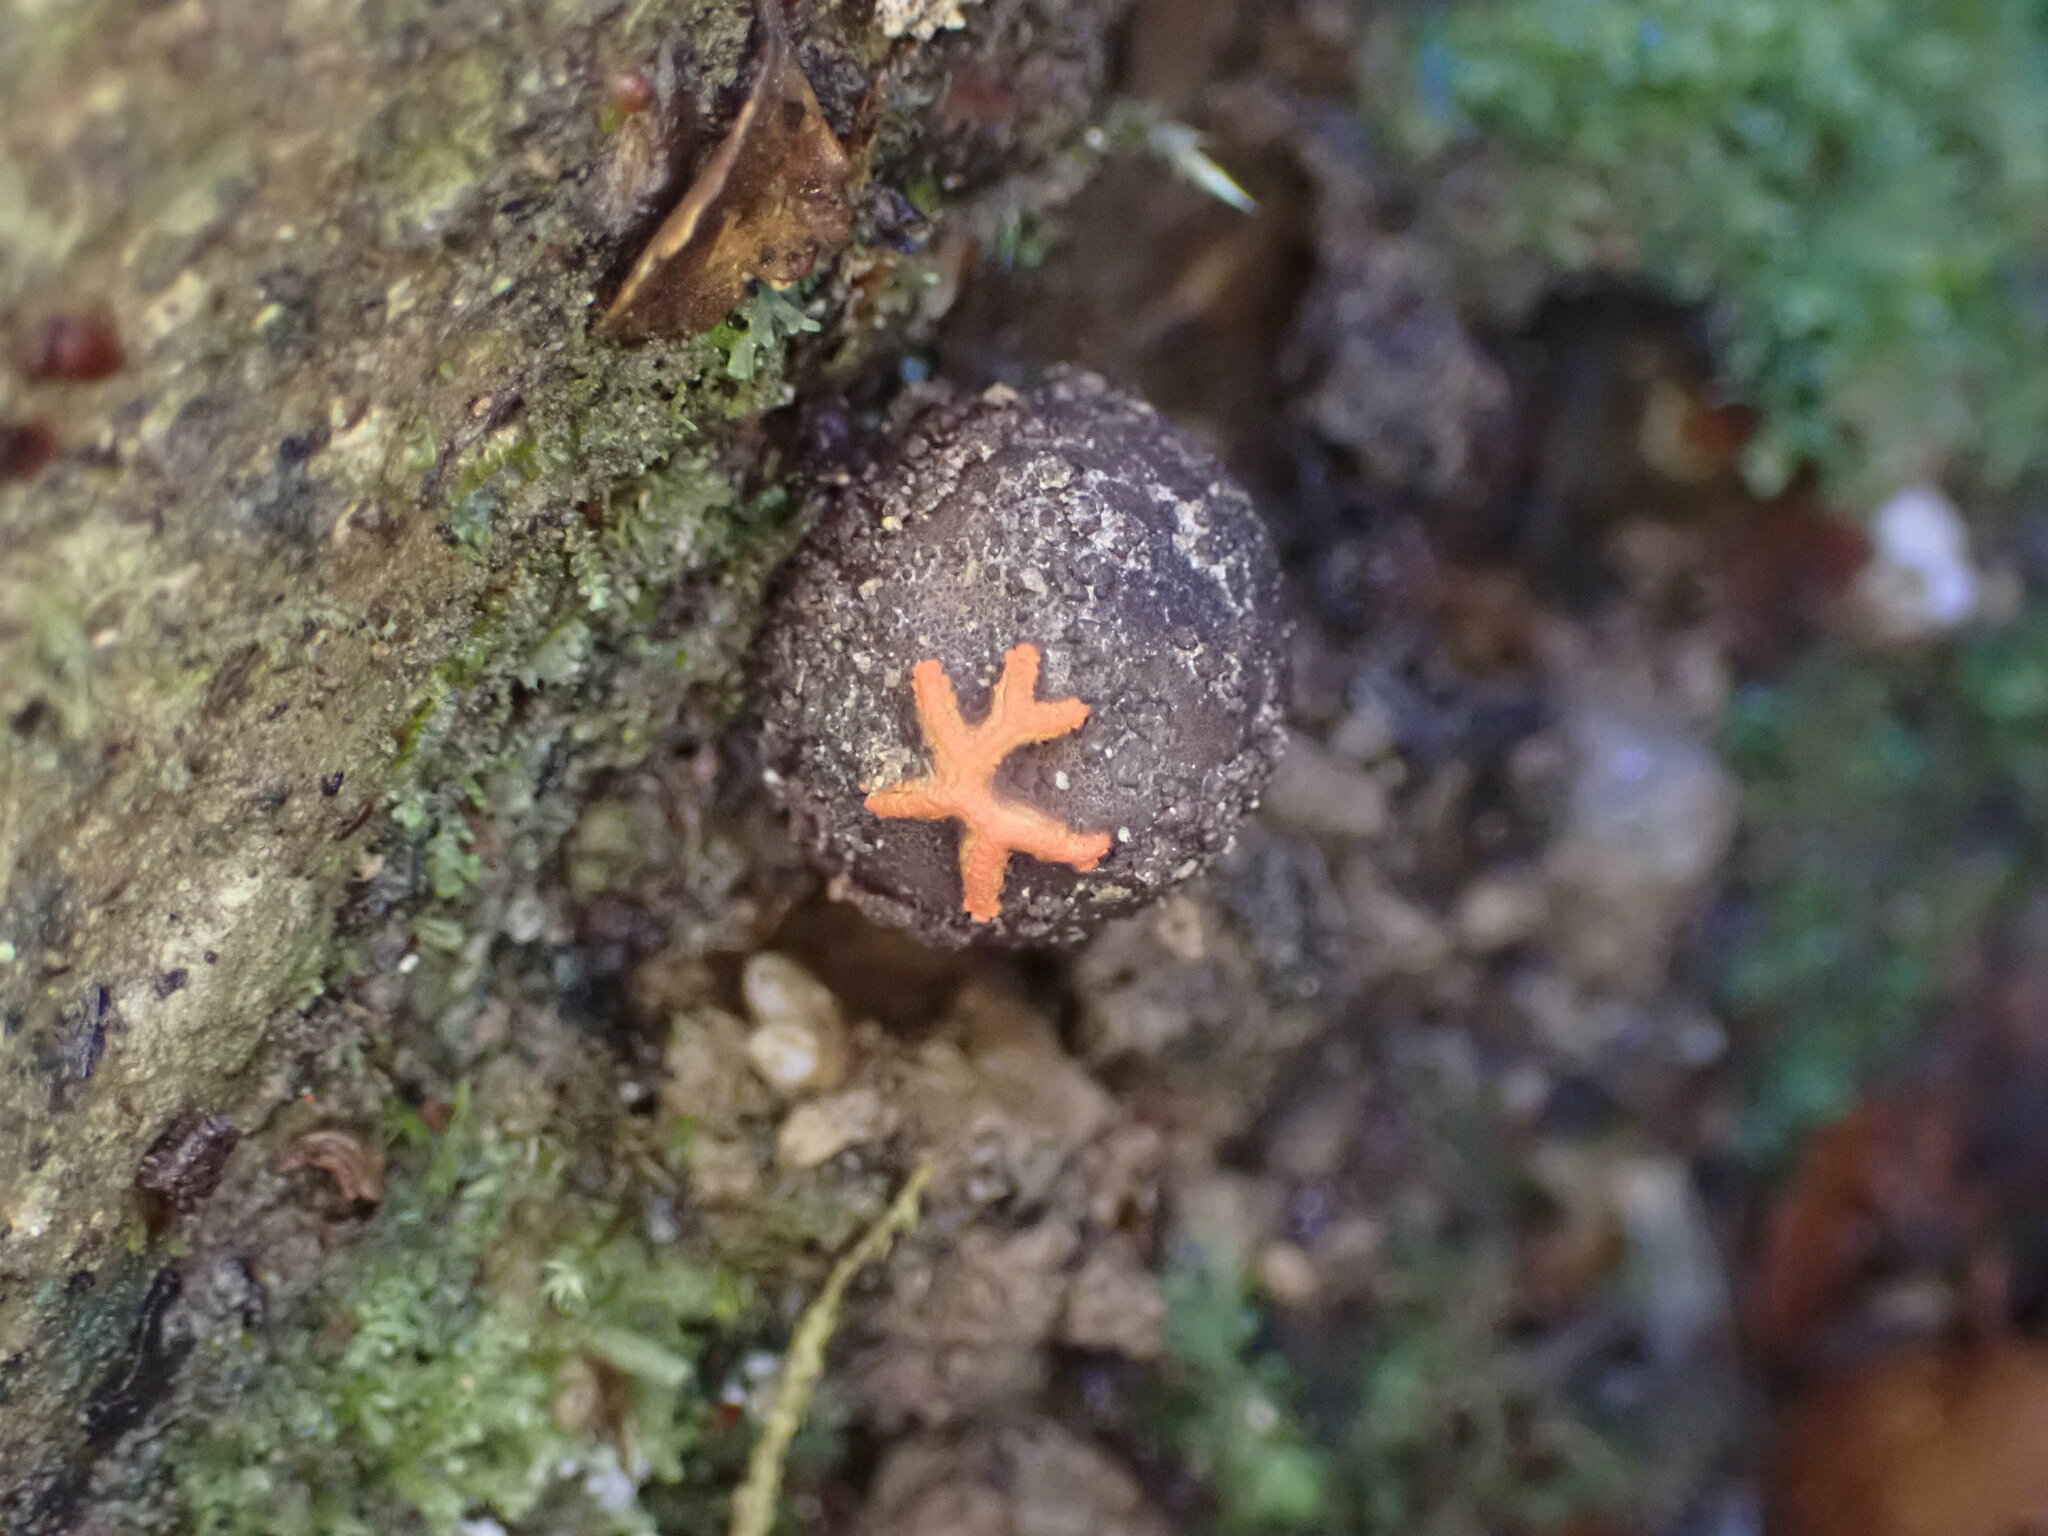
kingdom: Fungi
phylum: Basidiomycota
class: Agaricomycetes
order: Boletales
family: Calostomataceae
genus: Calostoma
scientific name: Calostoma rodwayi
